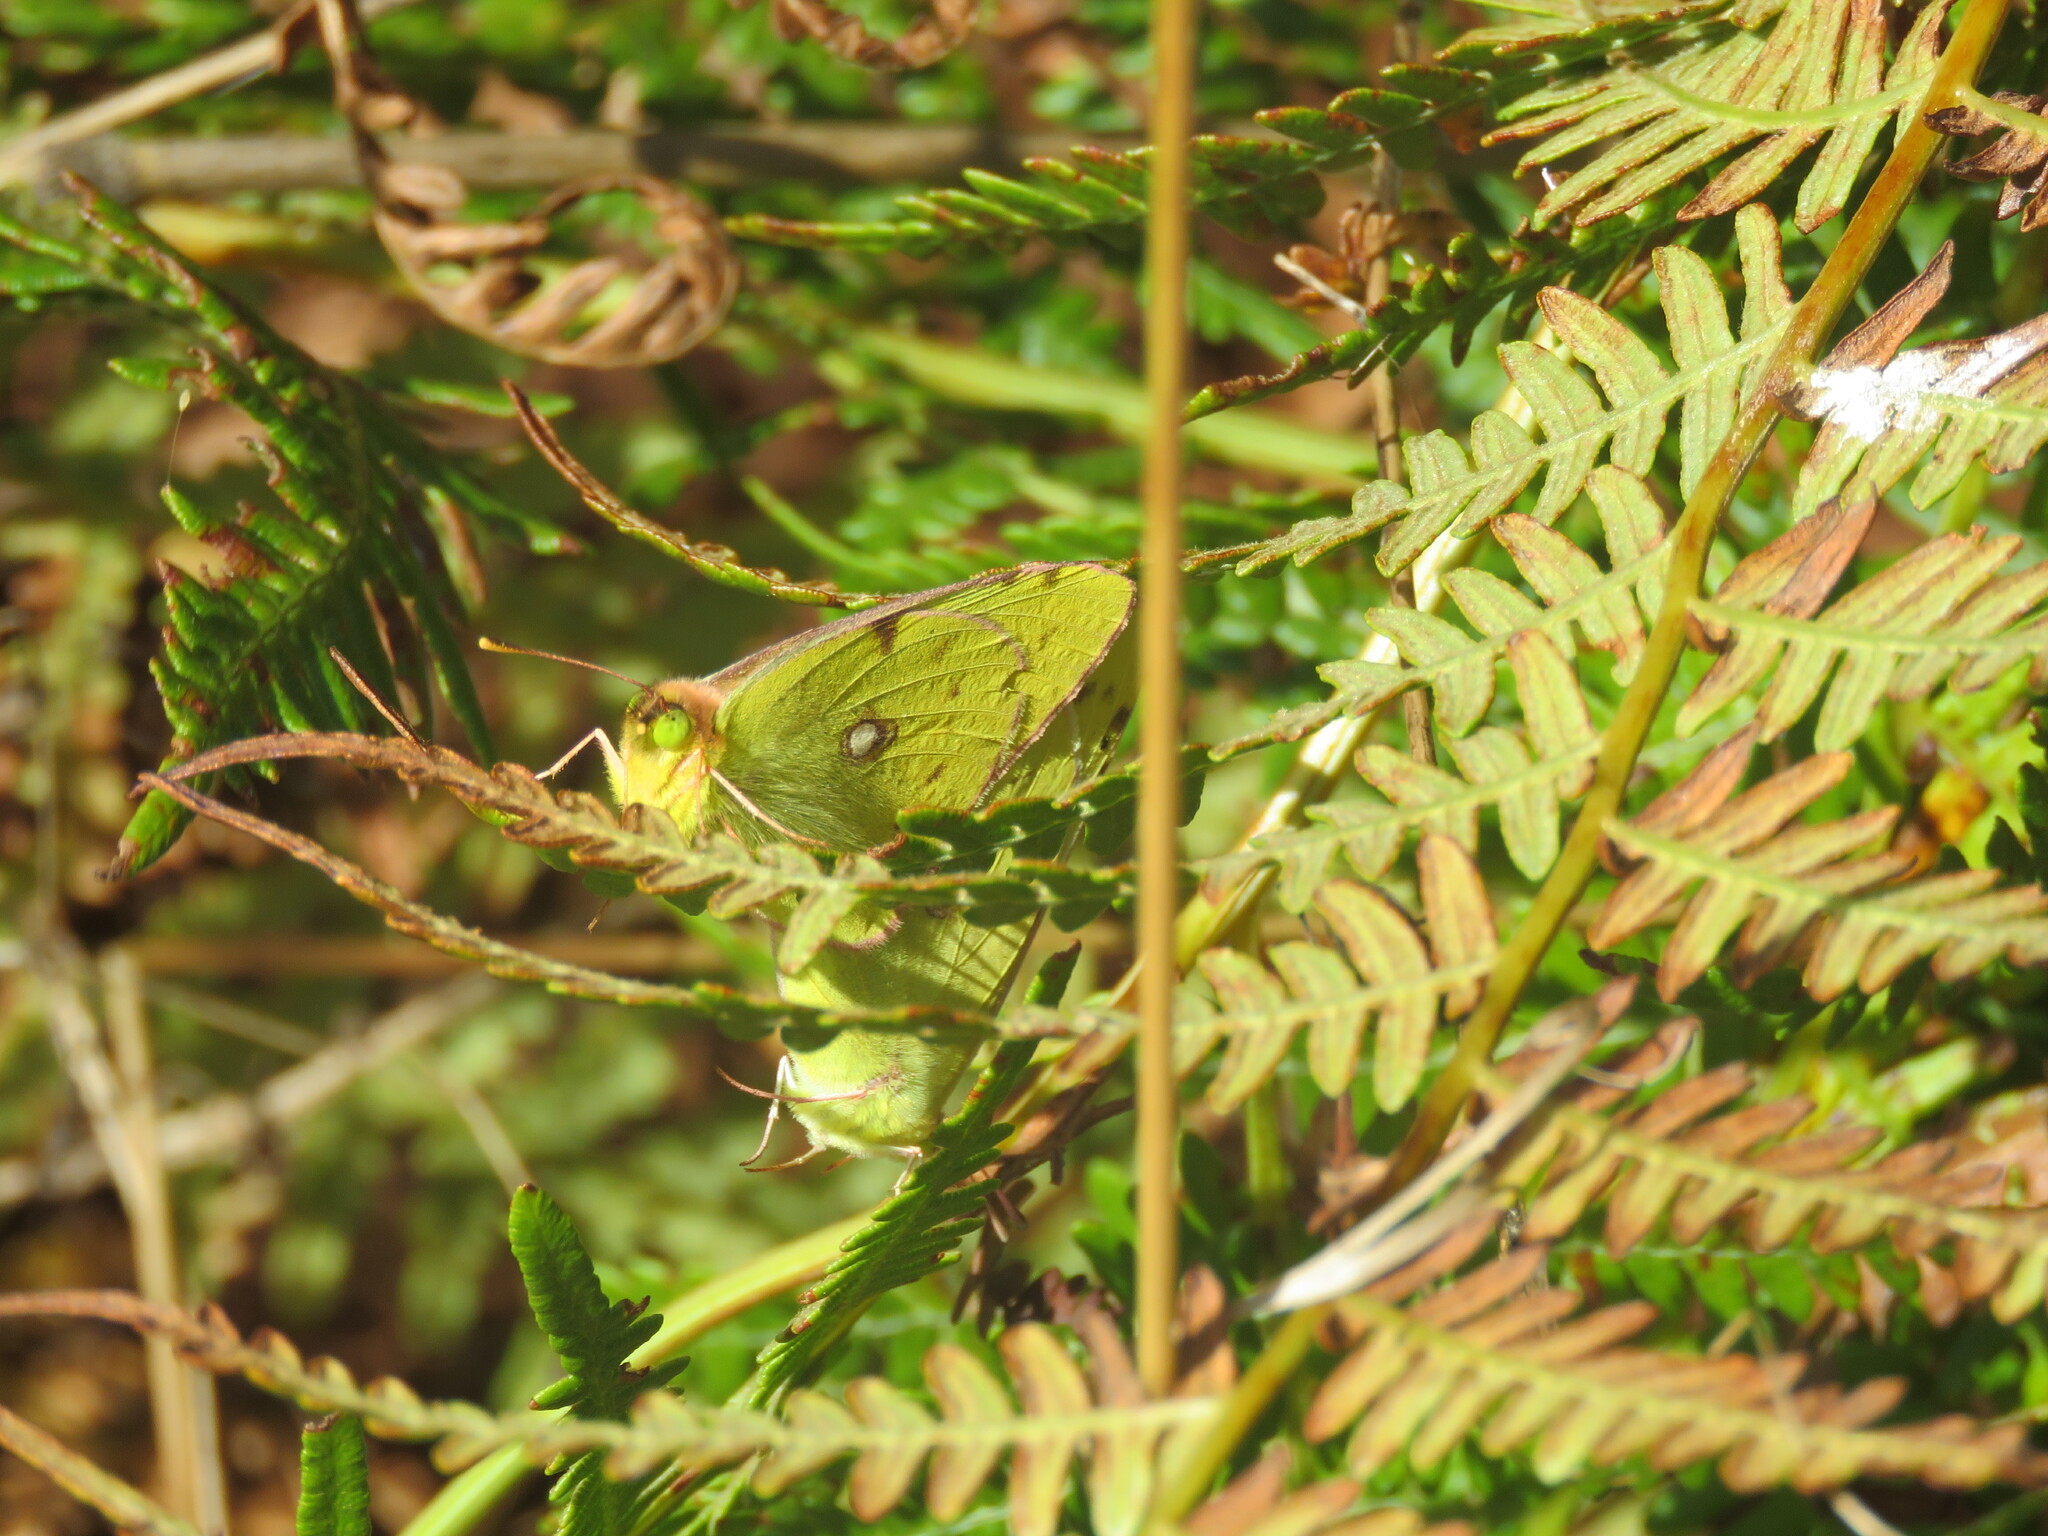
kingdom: Animalia
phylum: Arthropoda
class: Insecta
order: Lepidoptera
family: Pieridae
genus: Colias
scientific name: Colias croceus
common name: Clouded yellow
